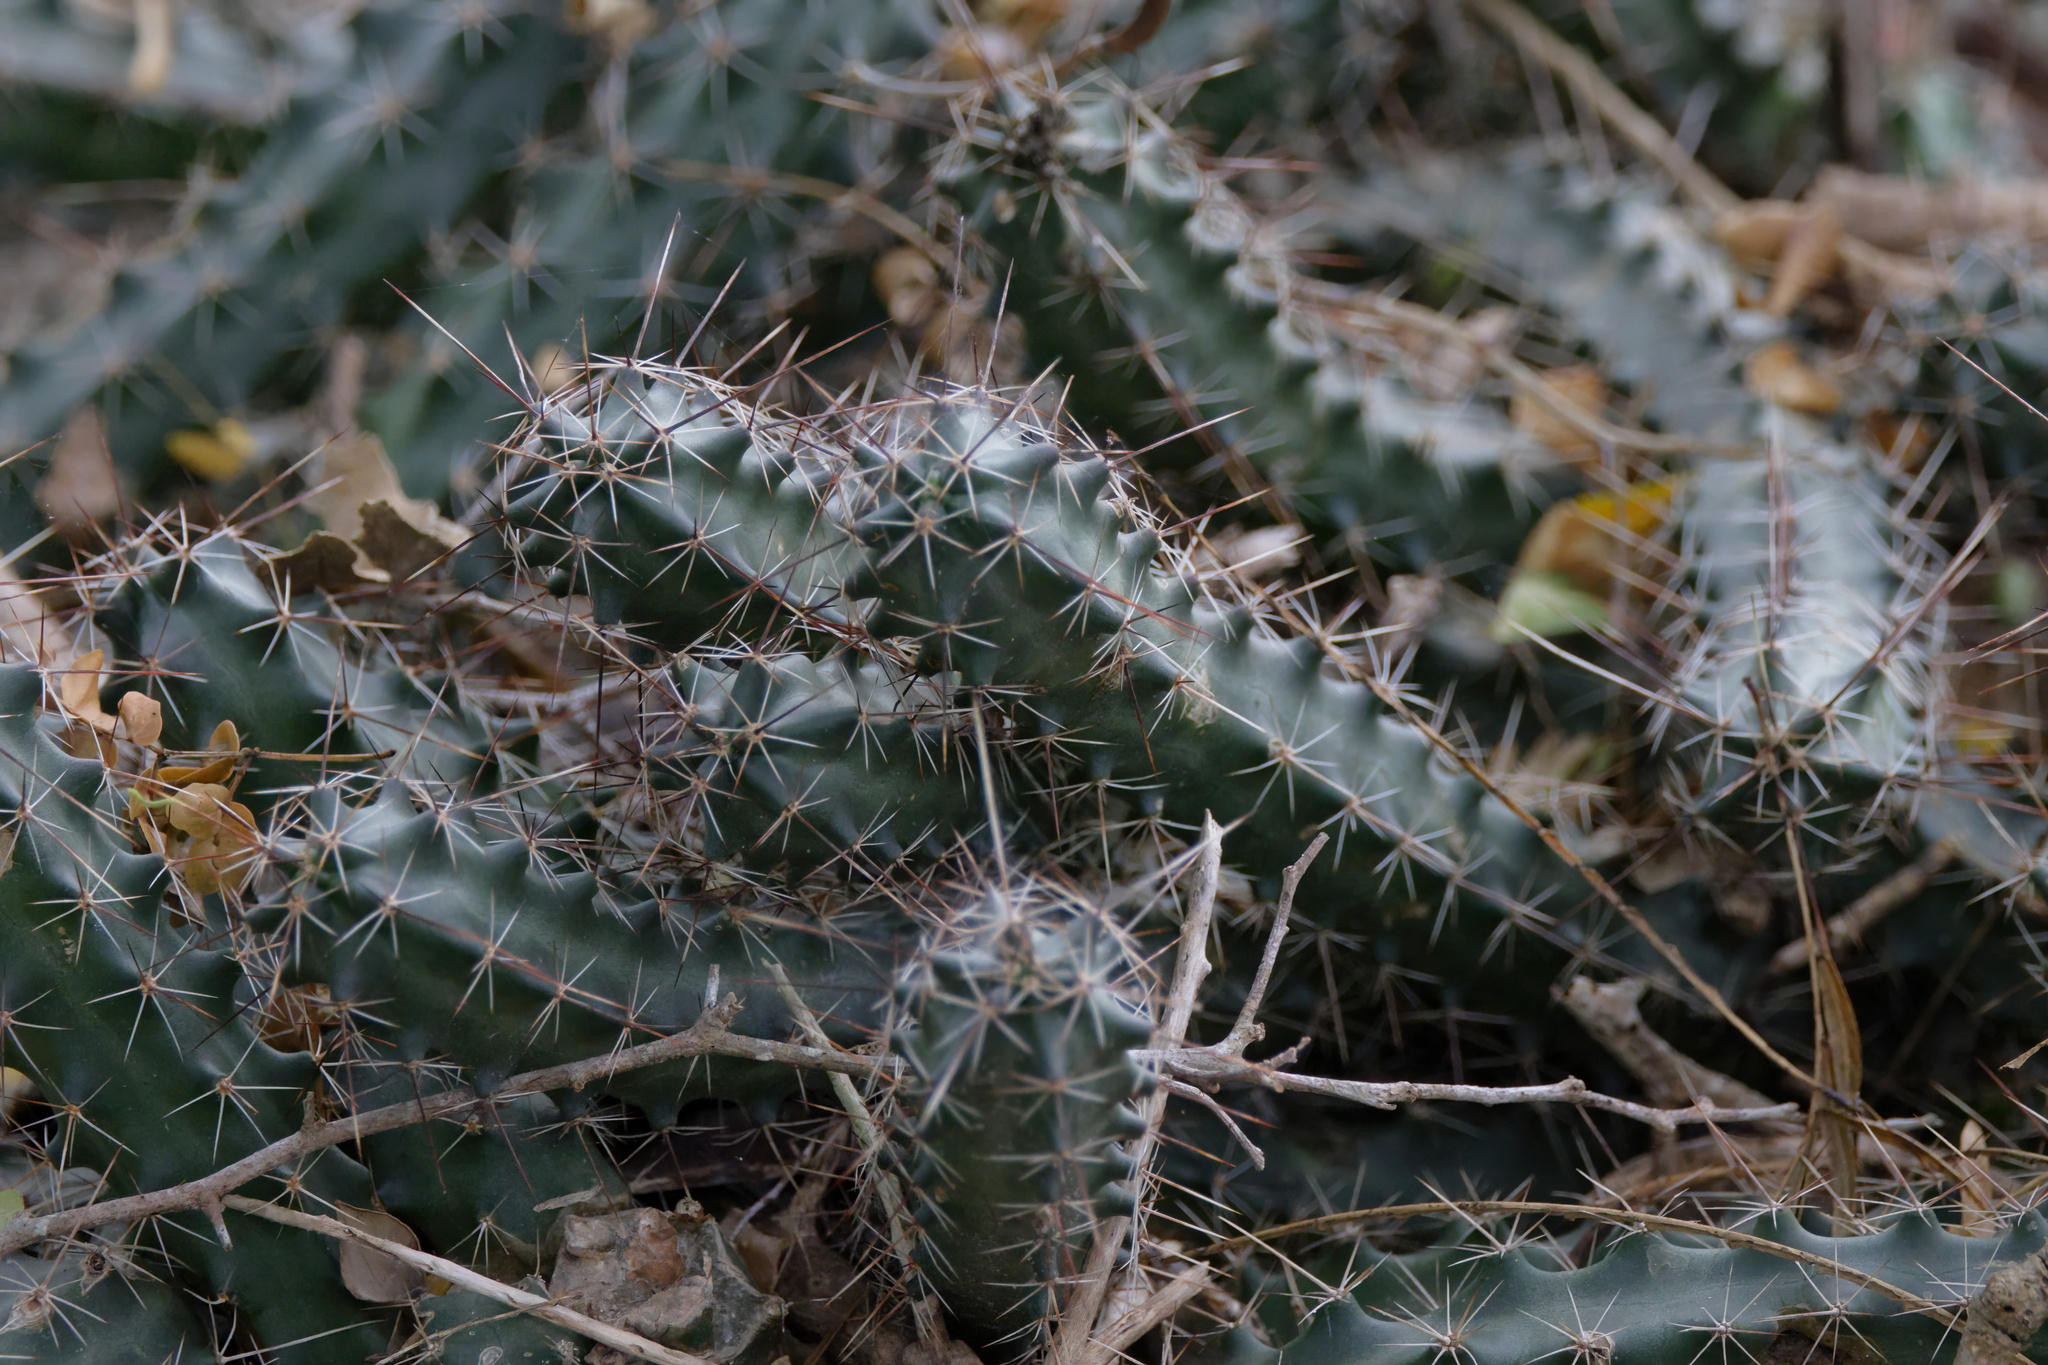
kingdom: Plantae
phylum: Tracheophyta
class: Magnoliopsida
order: Caryophyllales
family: Cactaceae
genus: Echinocereus
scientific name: Echinocereus berlandieri
